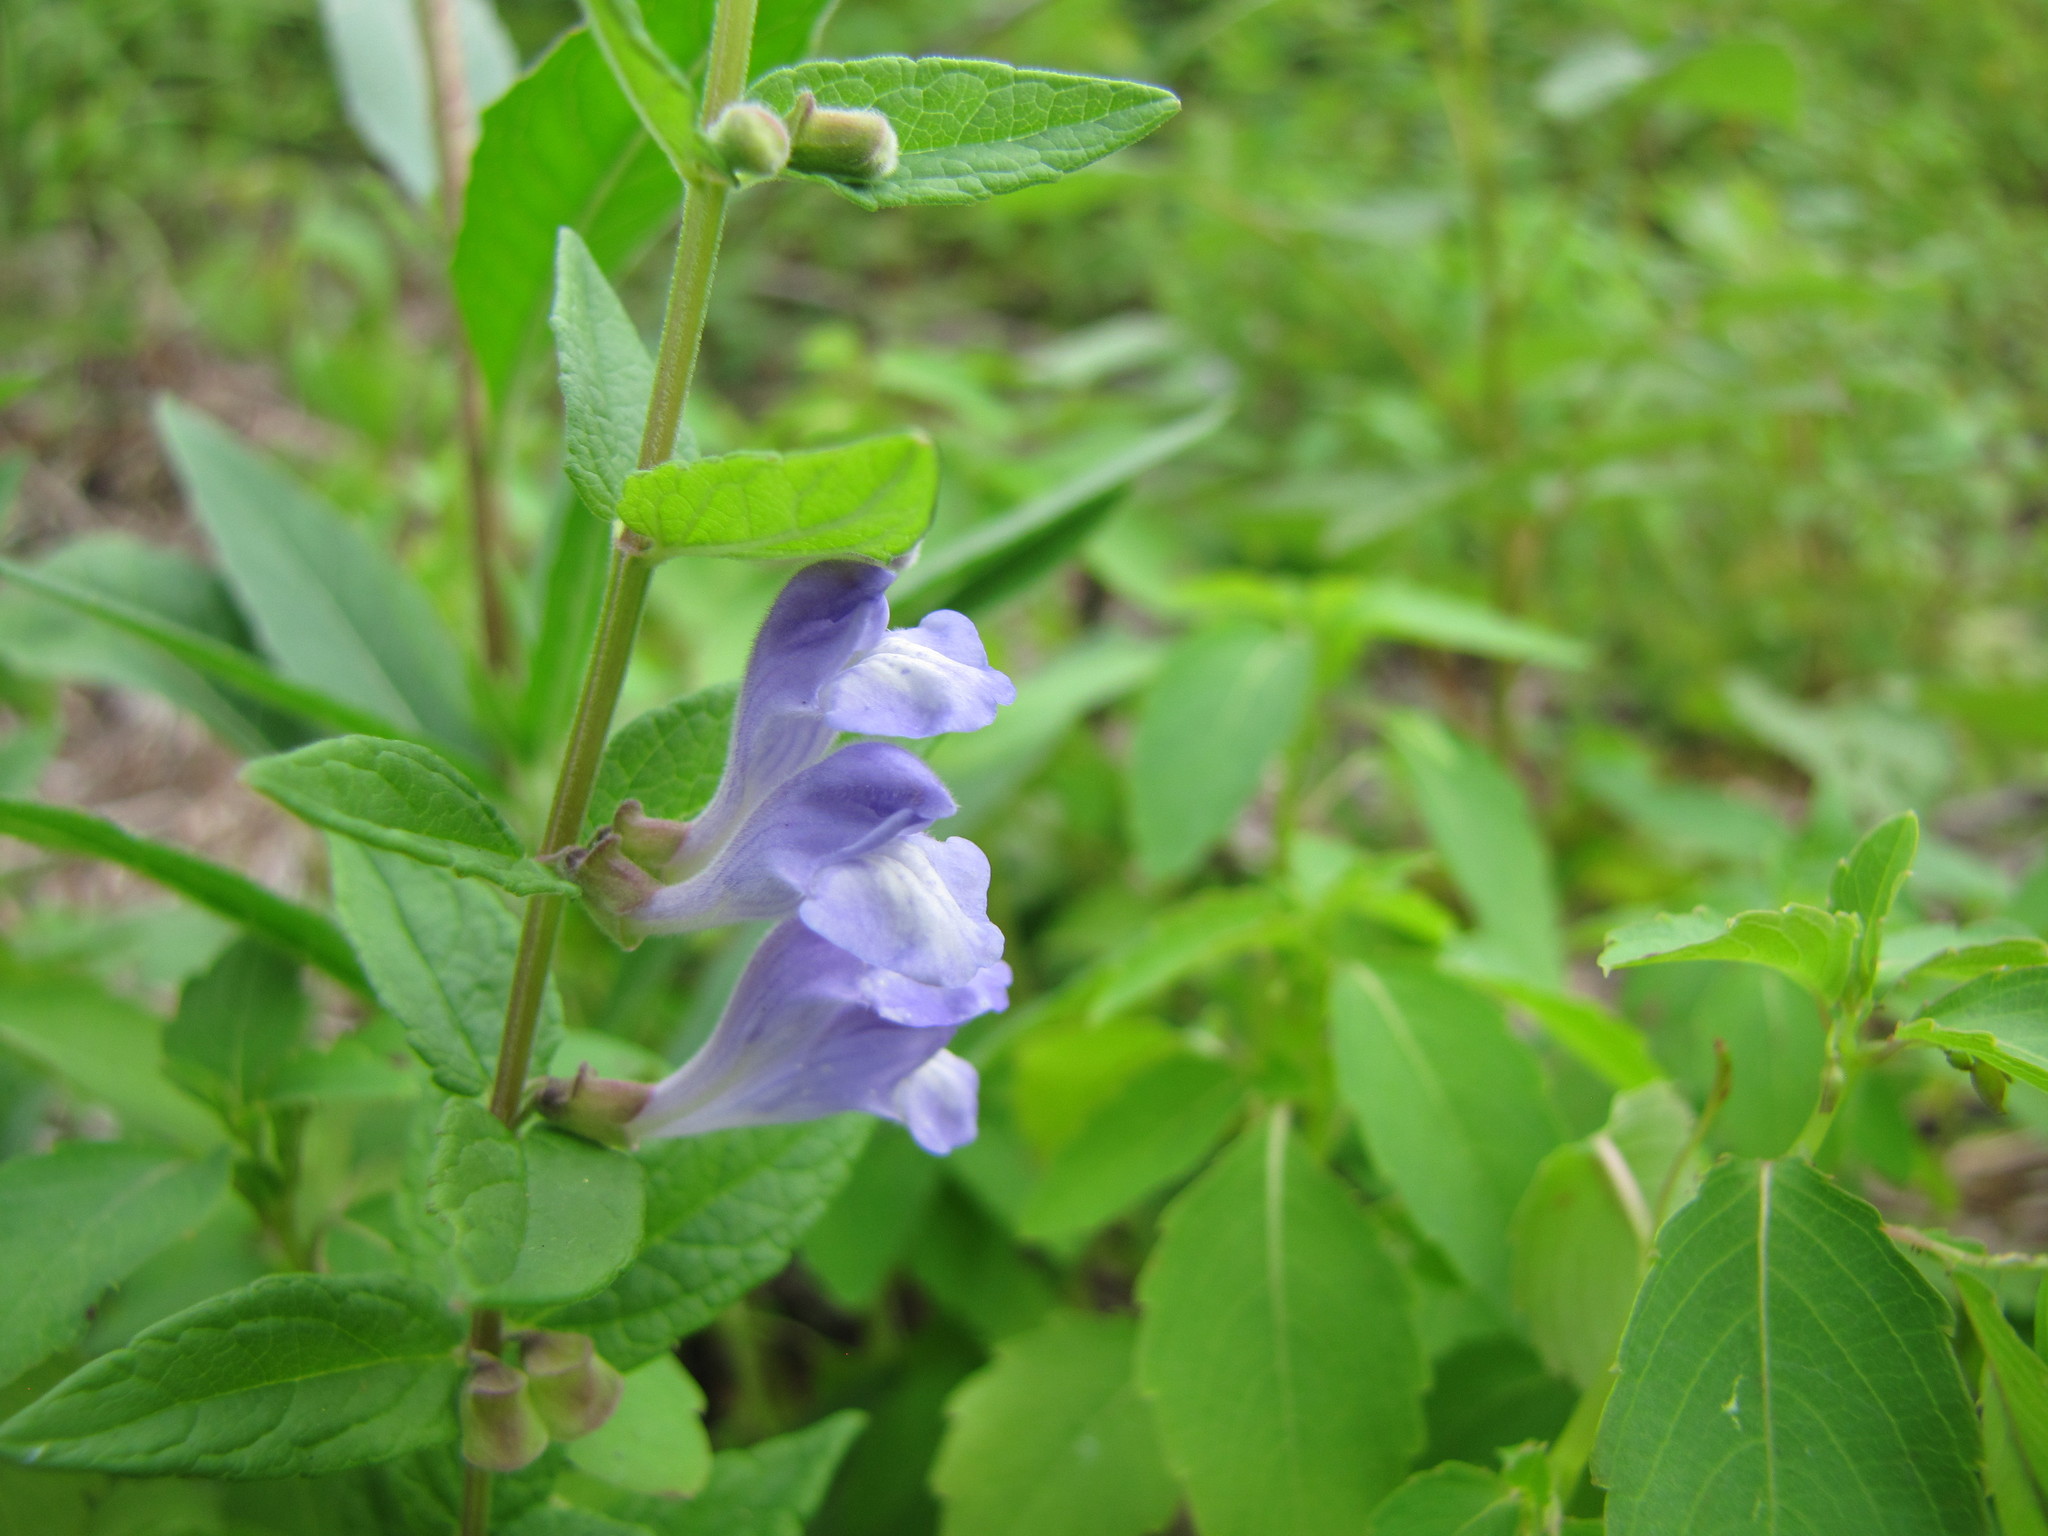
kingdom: Plantae
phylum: Tracheophyta
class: Magnoliopsida
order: Lamiales
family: Lamiaceae
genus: Scutellaria
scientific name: Scutellaria galericulata
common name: Skullcap
